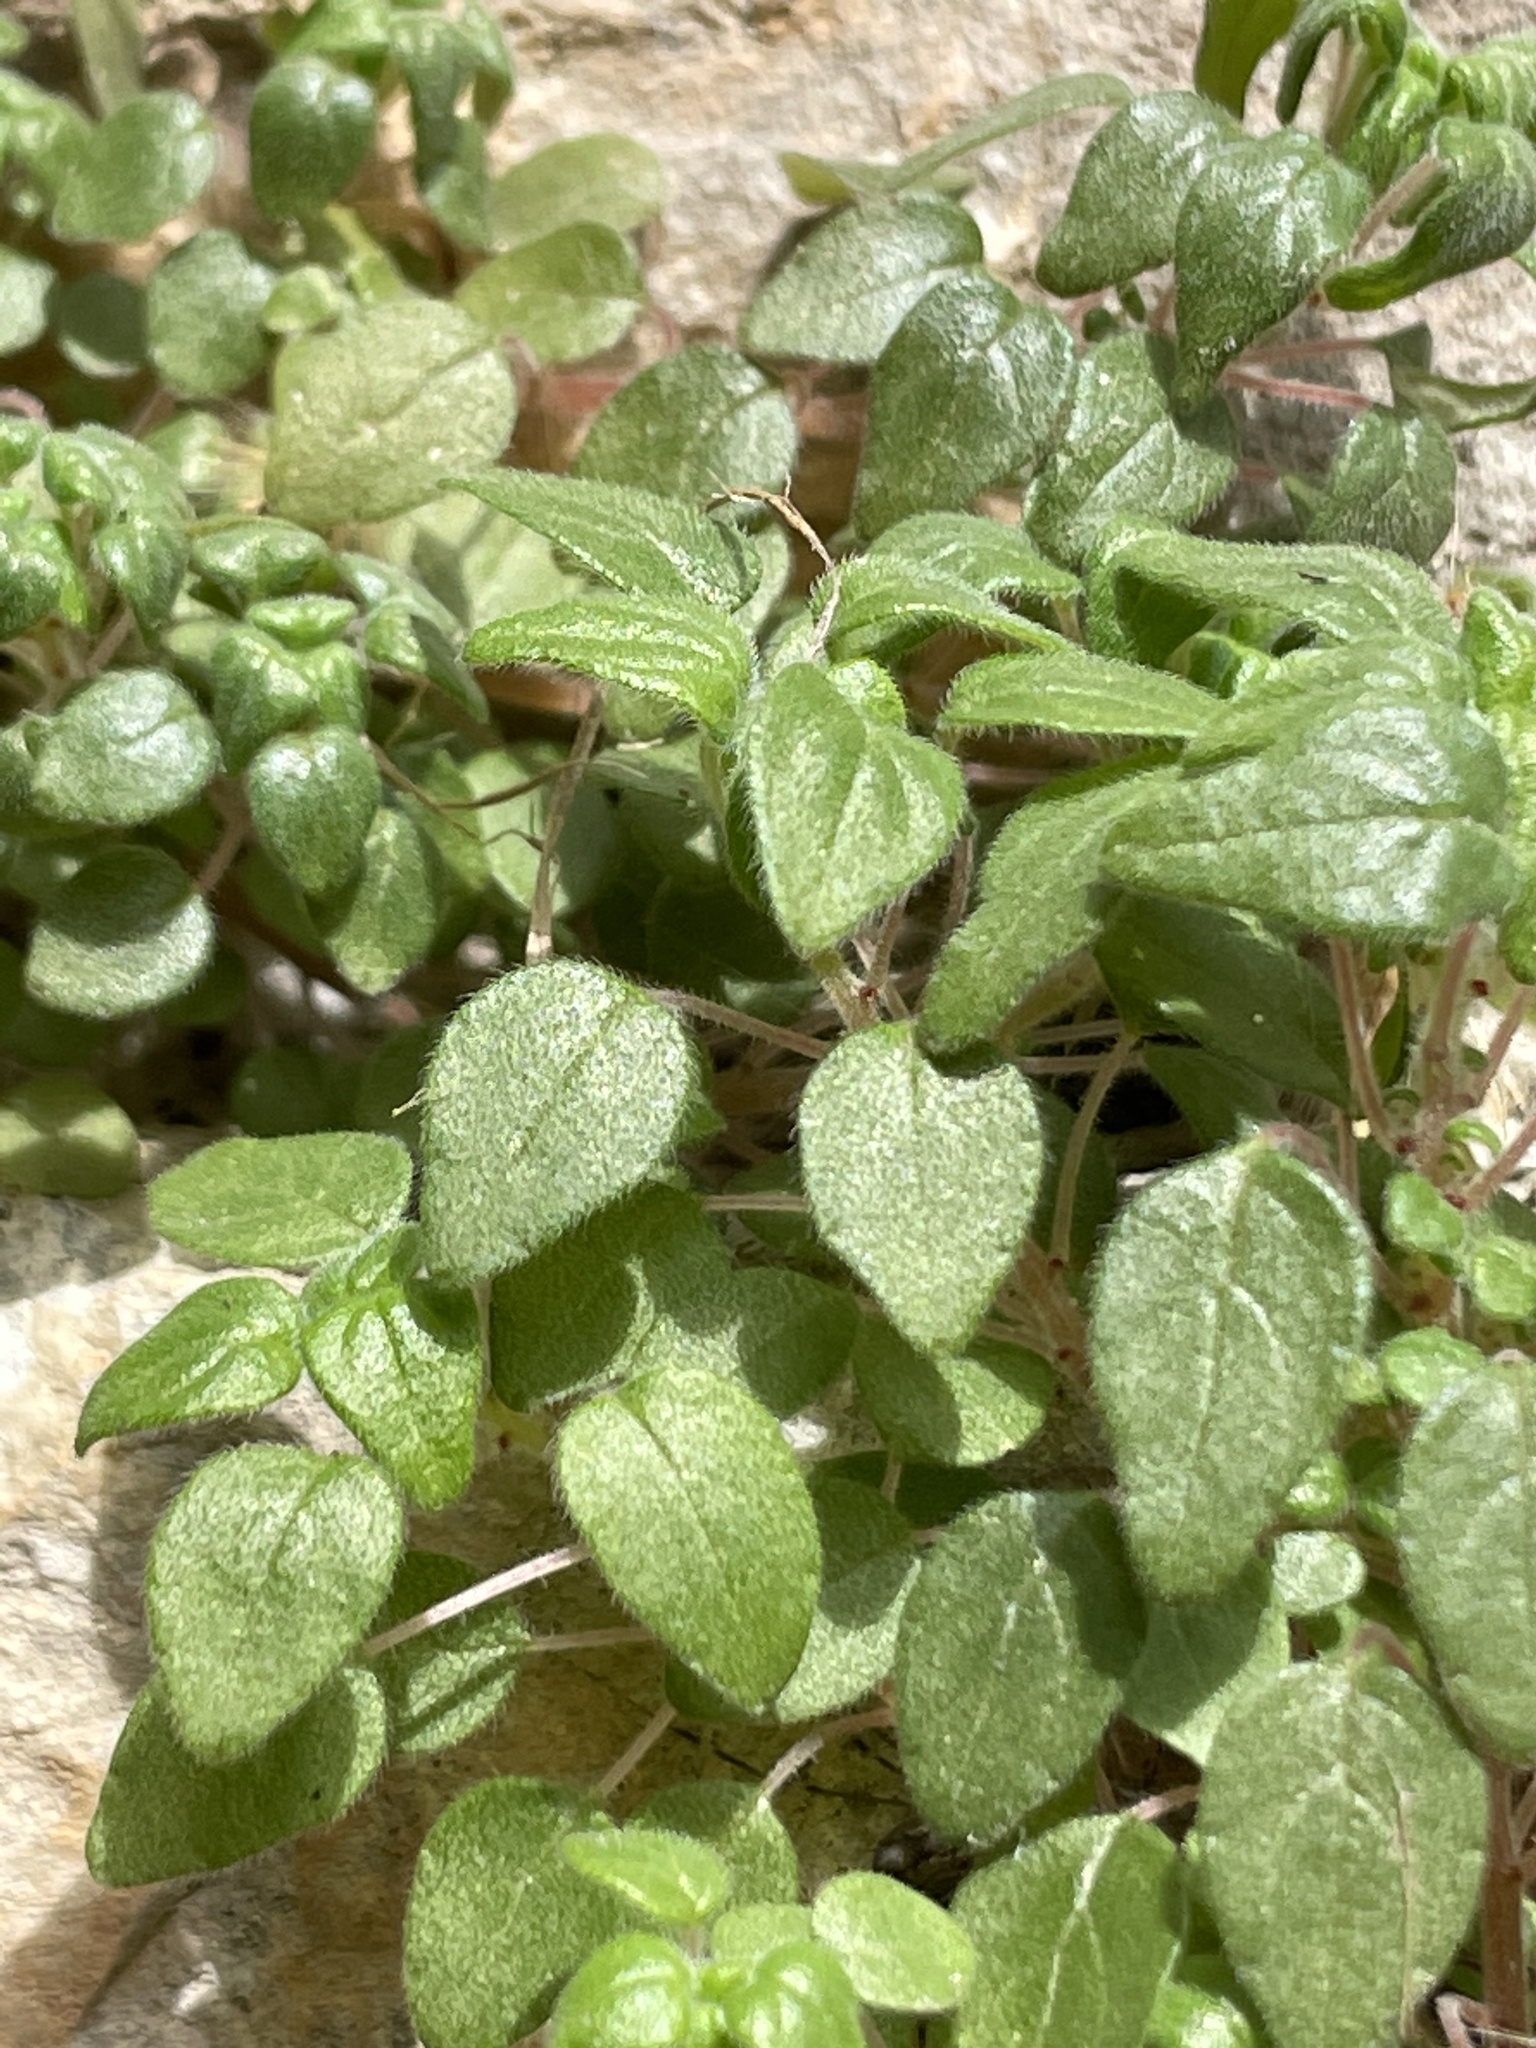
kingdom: Plantae
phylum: Tracheophyta
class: Magnoliopsida
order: Rosales
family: Urticaceae
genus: Parietaria
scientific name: Parietaria pensylvanica
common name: Pennsylvania pellitory
